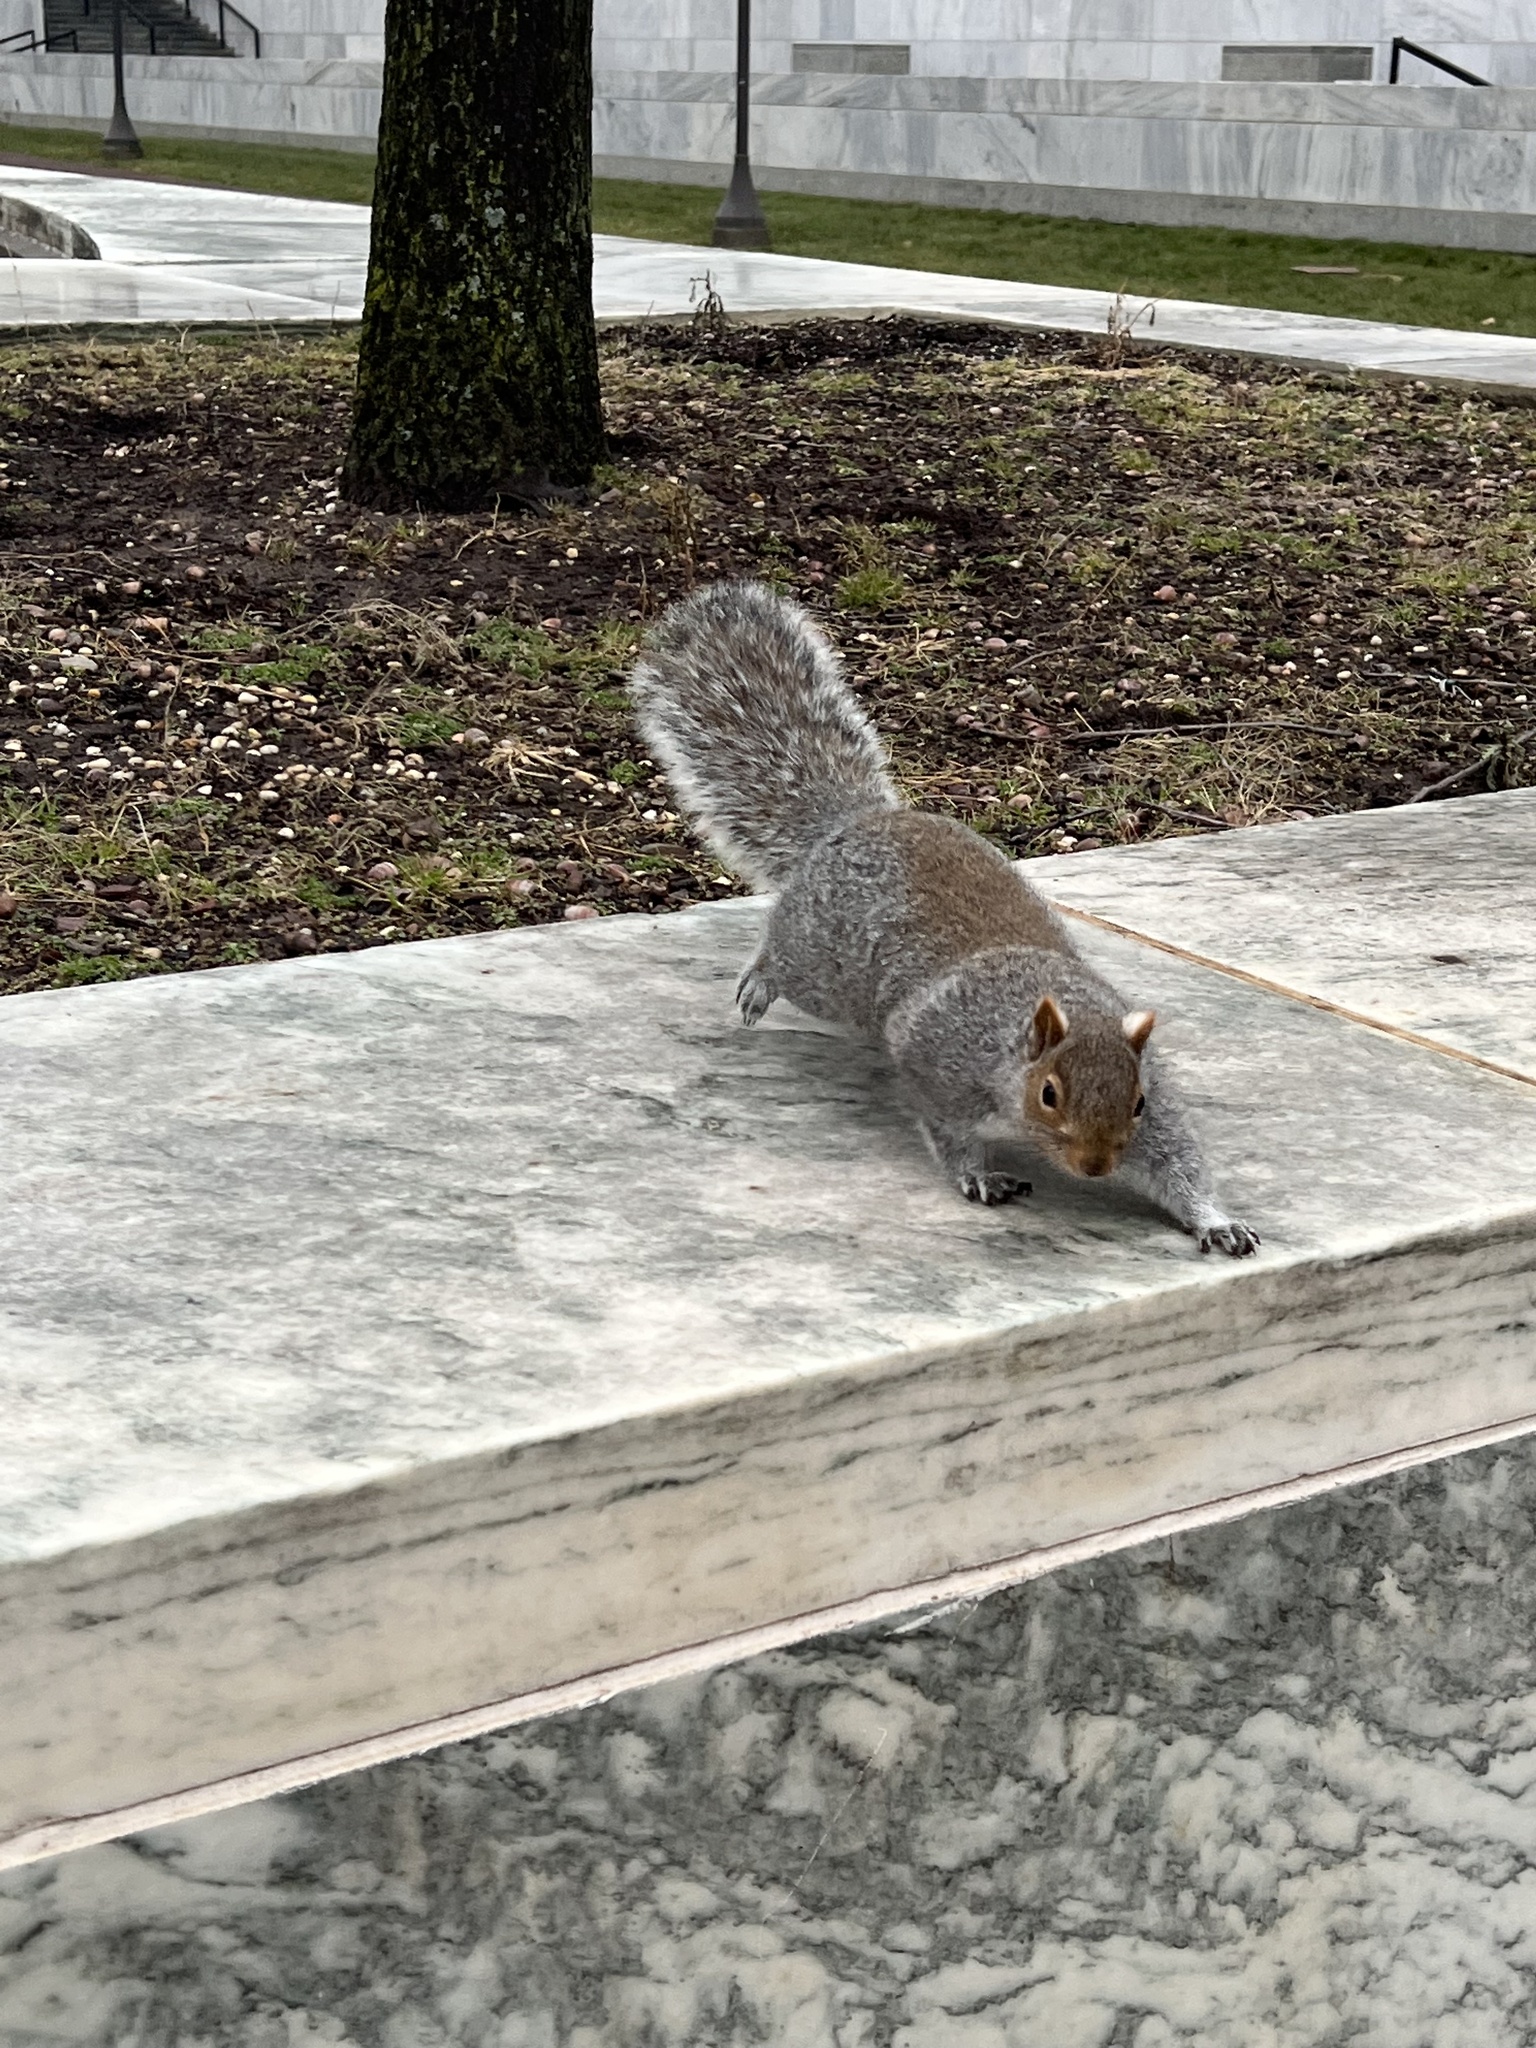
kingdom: Animalia
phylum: Chordata
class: Mammalia
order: Rodentia
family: Sciuridae
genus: Sciurus
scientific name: Sciurus carolinensis
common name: Eastern gray squirrel
